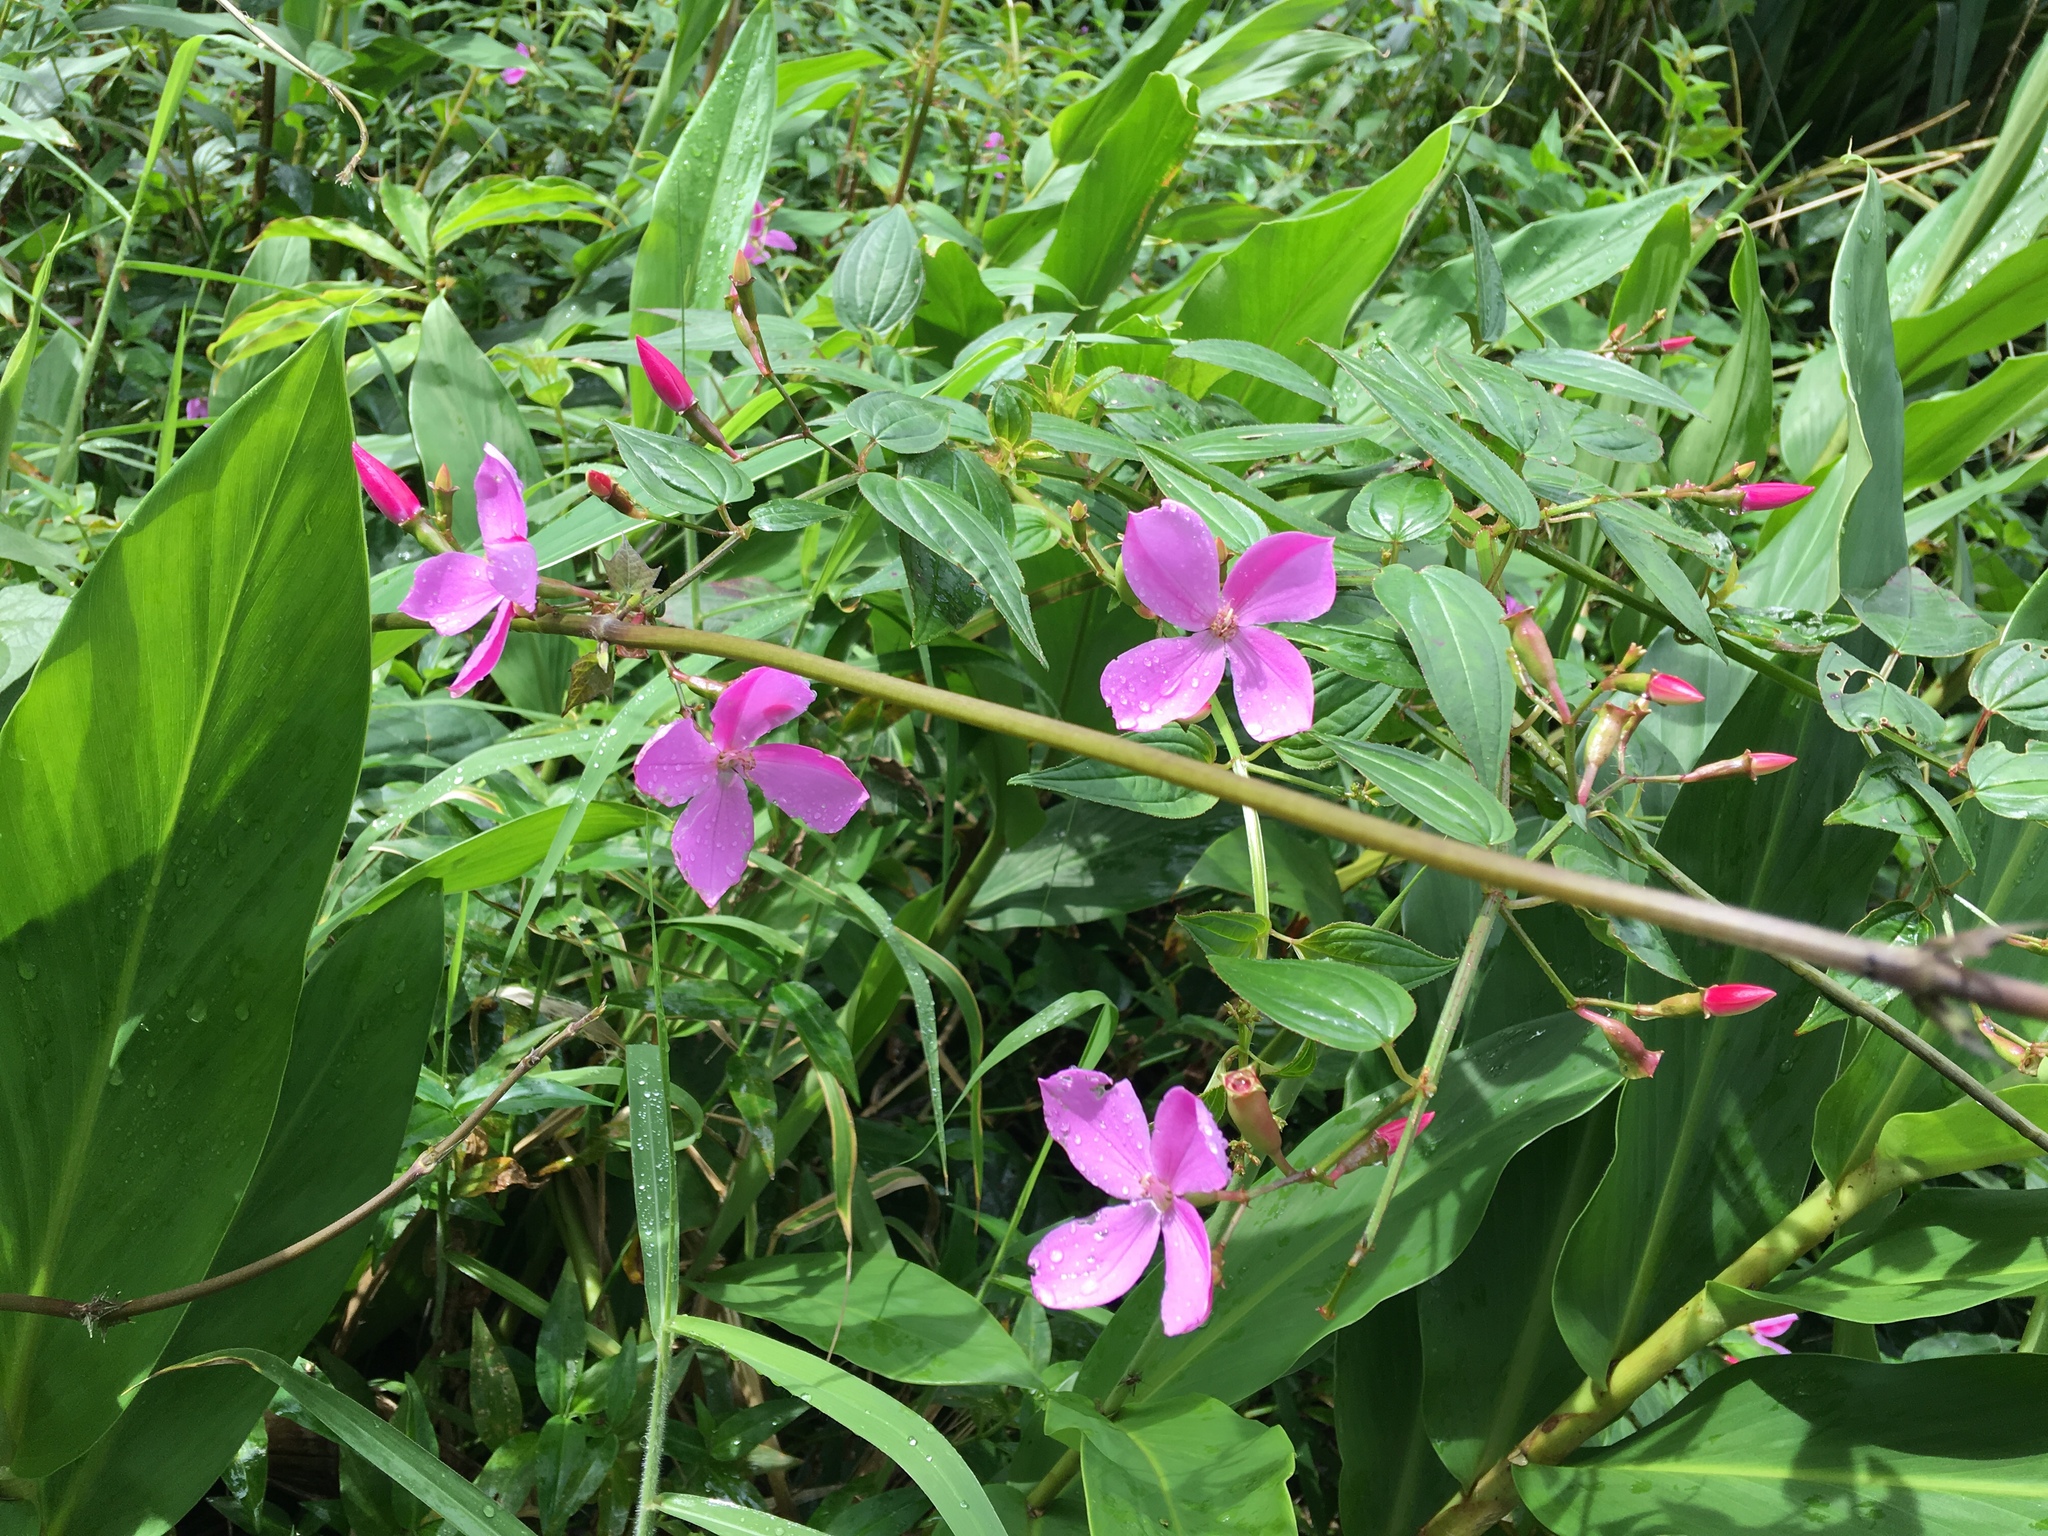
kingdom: Plantae
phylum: Tracheophyta
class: Magnoliopsida
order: Myrtales
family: Melastomataceae
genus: Arthrostemma
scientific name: Arthrostemma ciliatum
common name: Everblooming eavender
